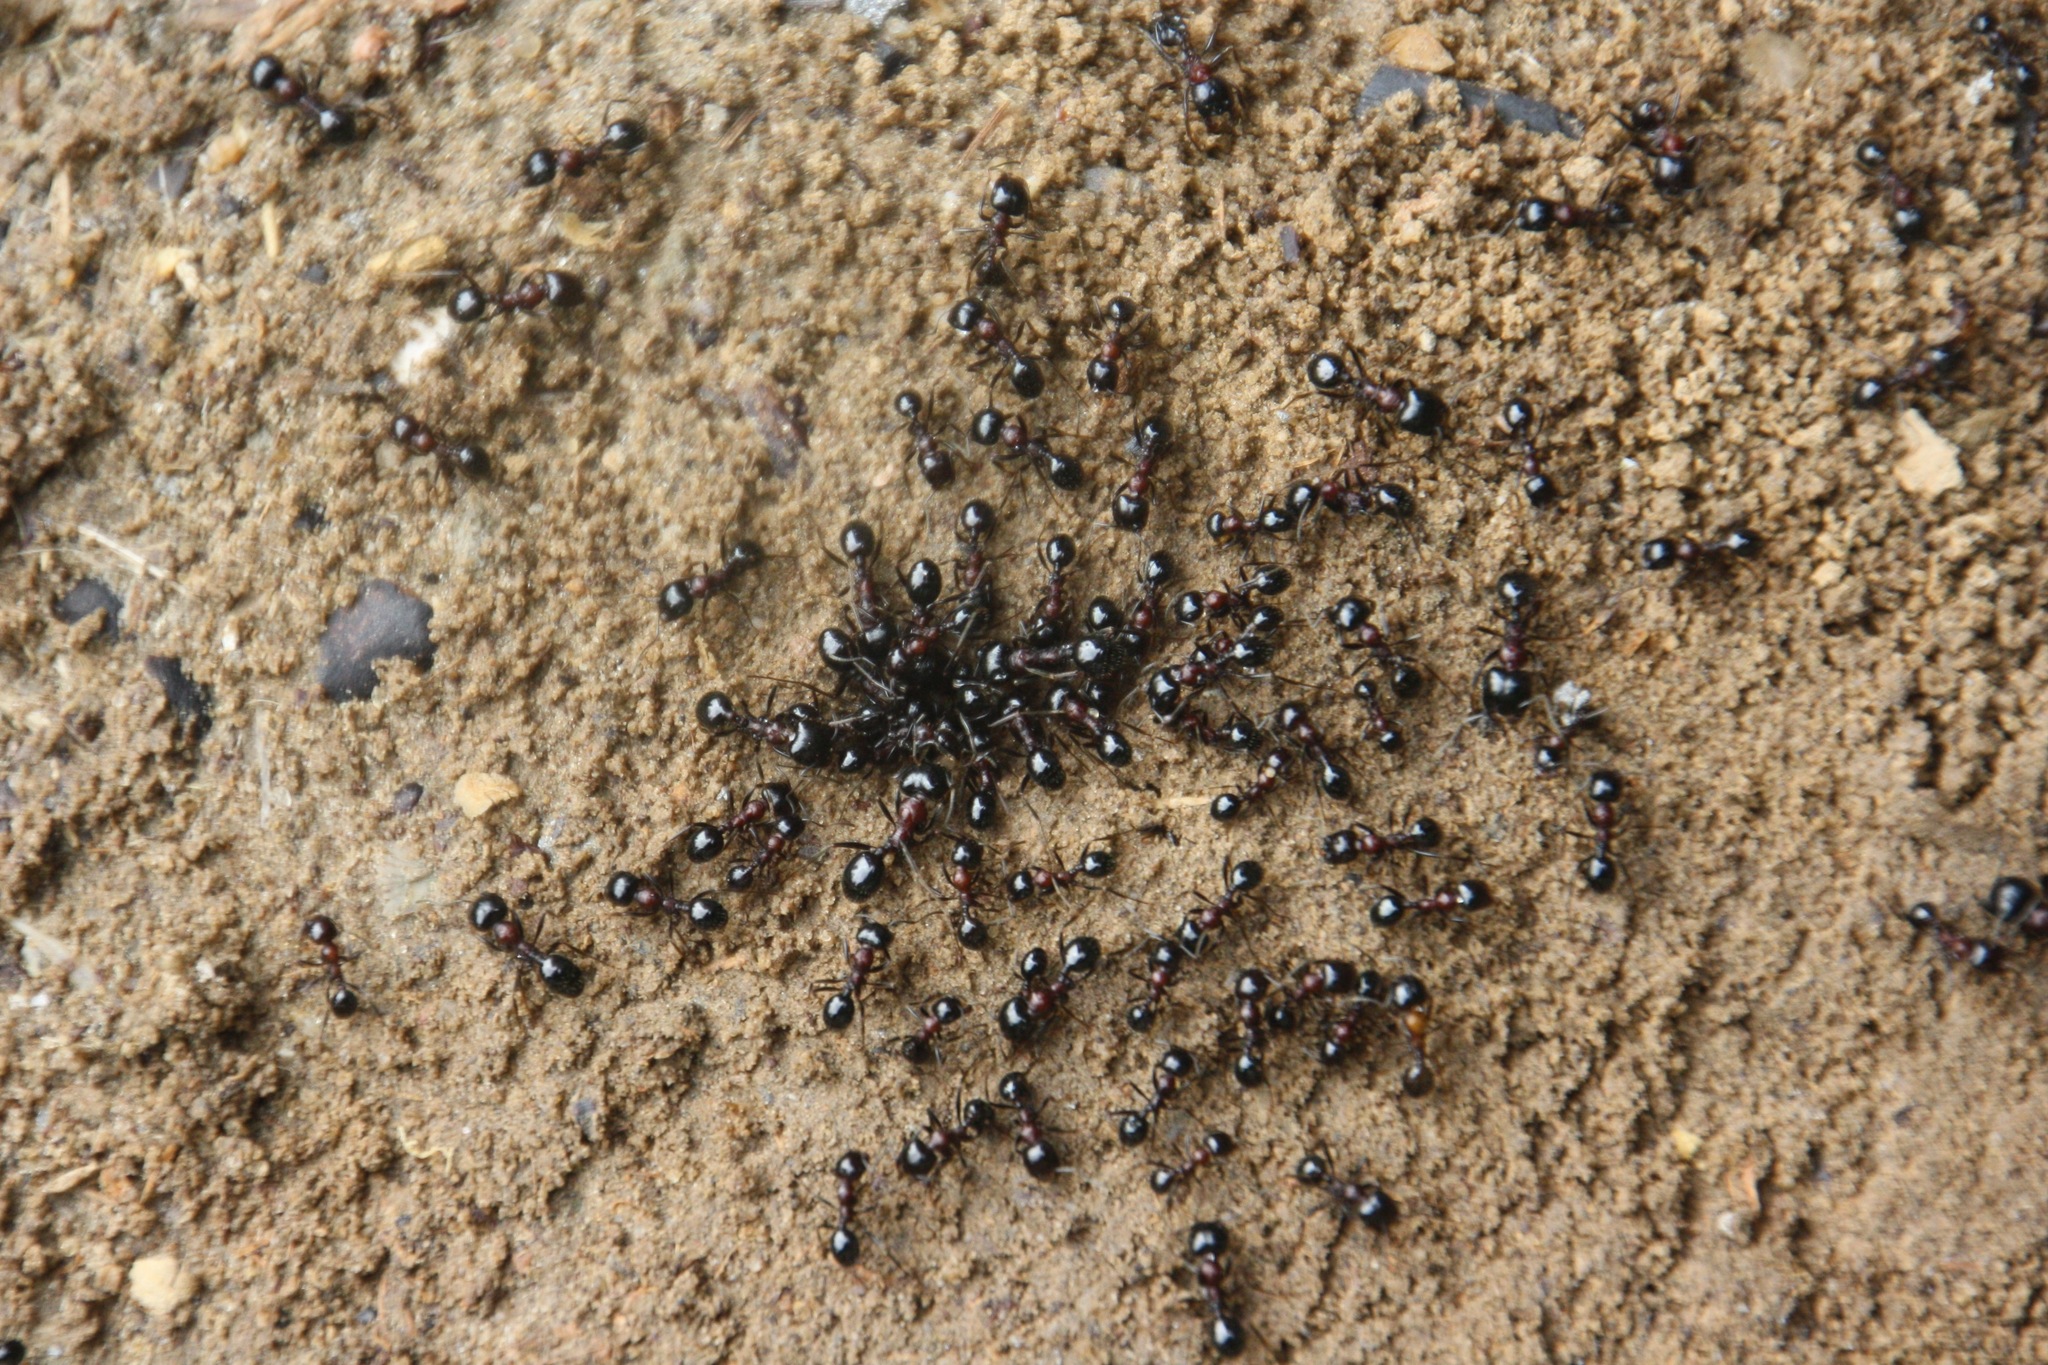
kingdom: Animalia
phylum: Arthropoda
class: Insecta
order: Hymenoptera
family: Formicidae
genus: Messor
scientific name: Messor denticulatus
